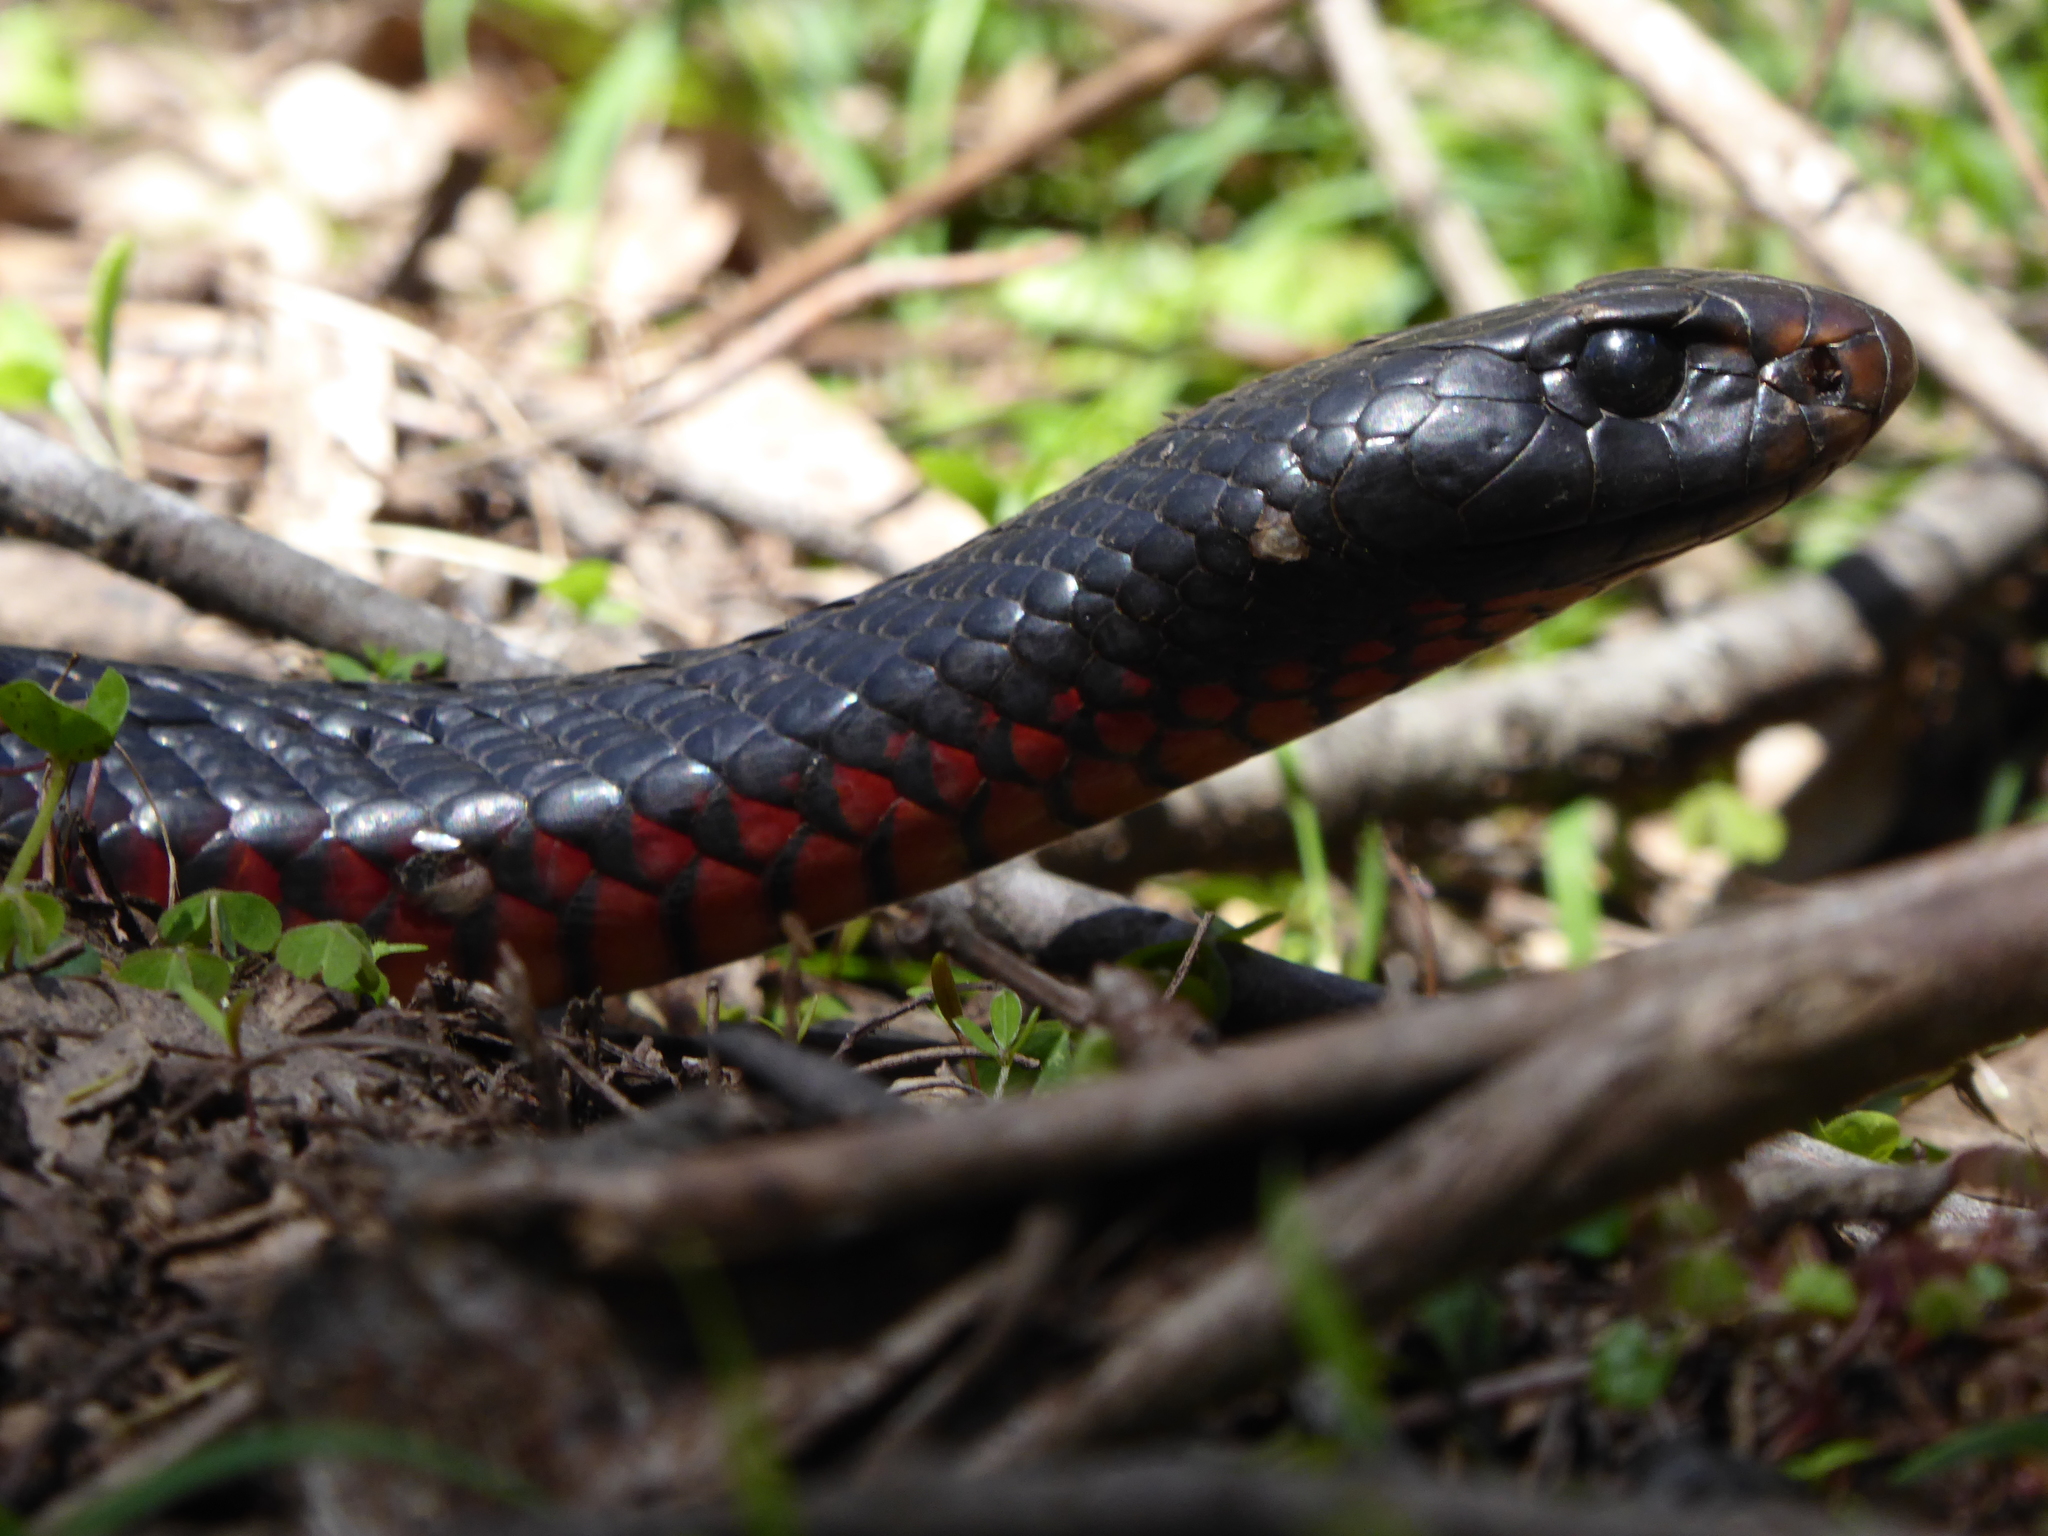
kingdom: Animalia
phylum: Chordata
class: Squamata
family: Elapidae
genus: Pseudechis
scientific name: Pseudechis porphyriacus
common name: Australian black snake
